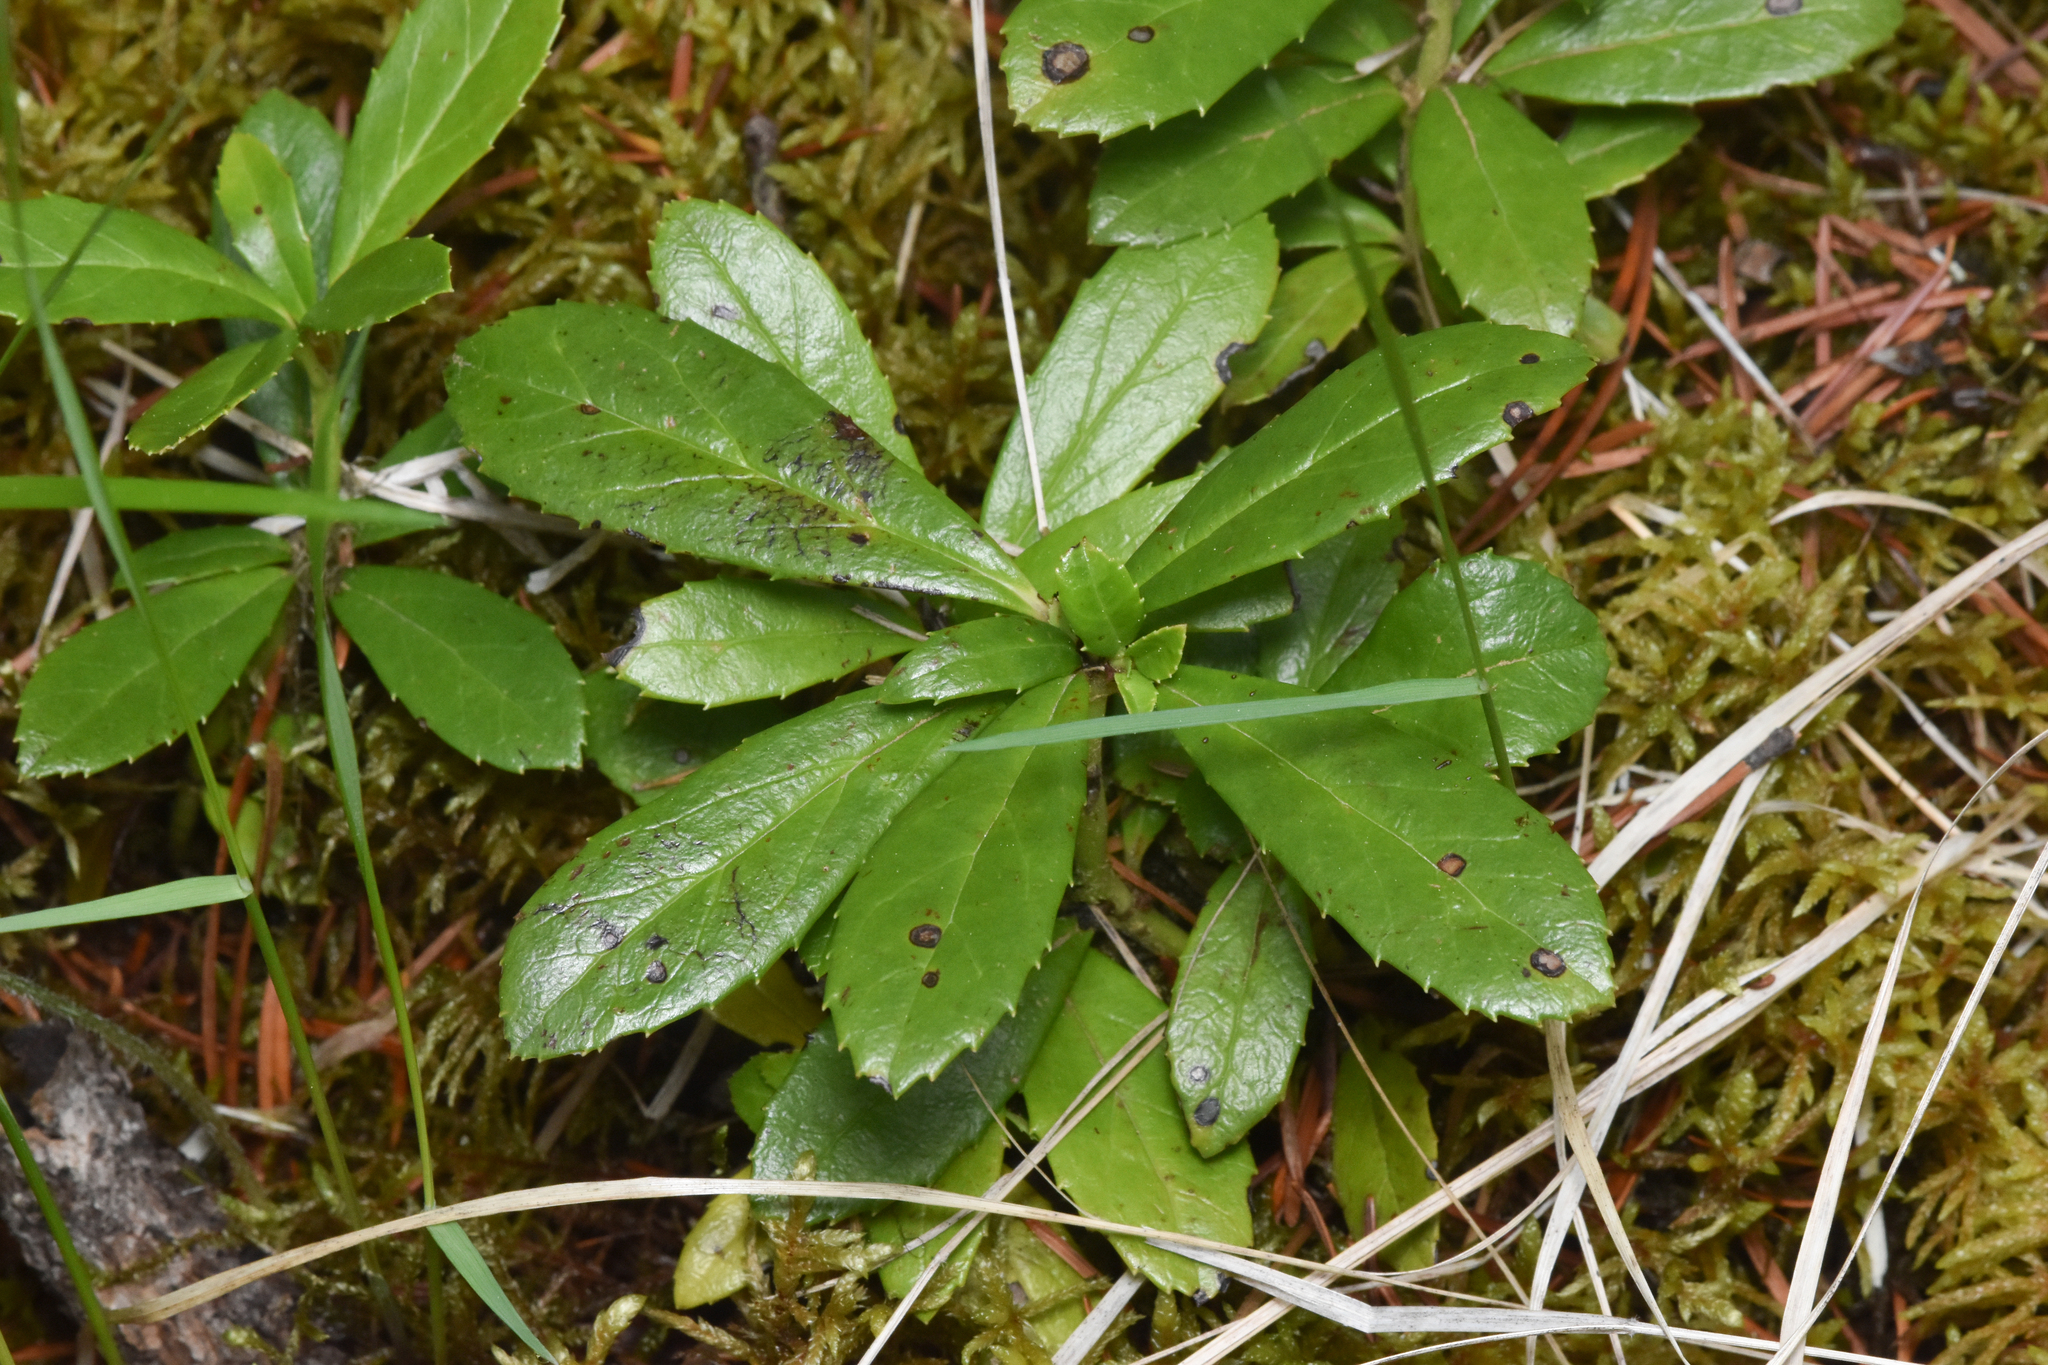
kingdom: Plantae
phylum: Tracheophyta
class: Magnoliopsida
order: Ericales
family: Ericaceae
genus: Chimaphila
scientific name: Chimaphila umbellata
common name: Pipsissewa
